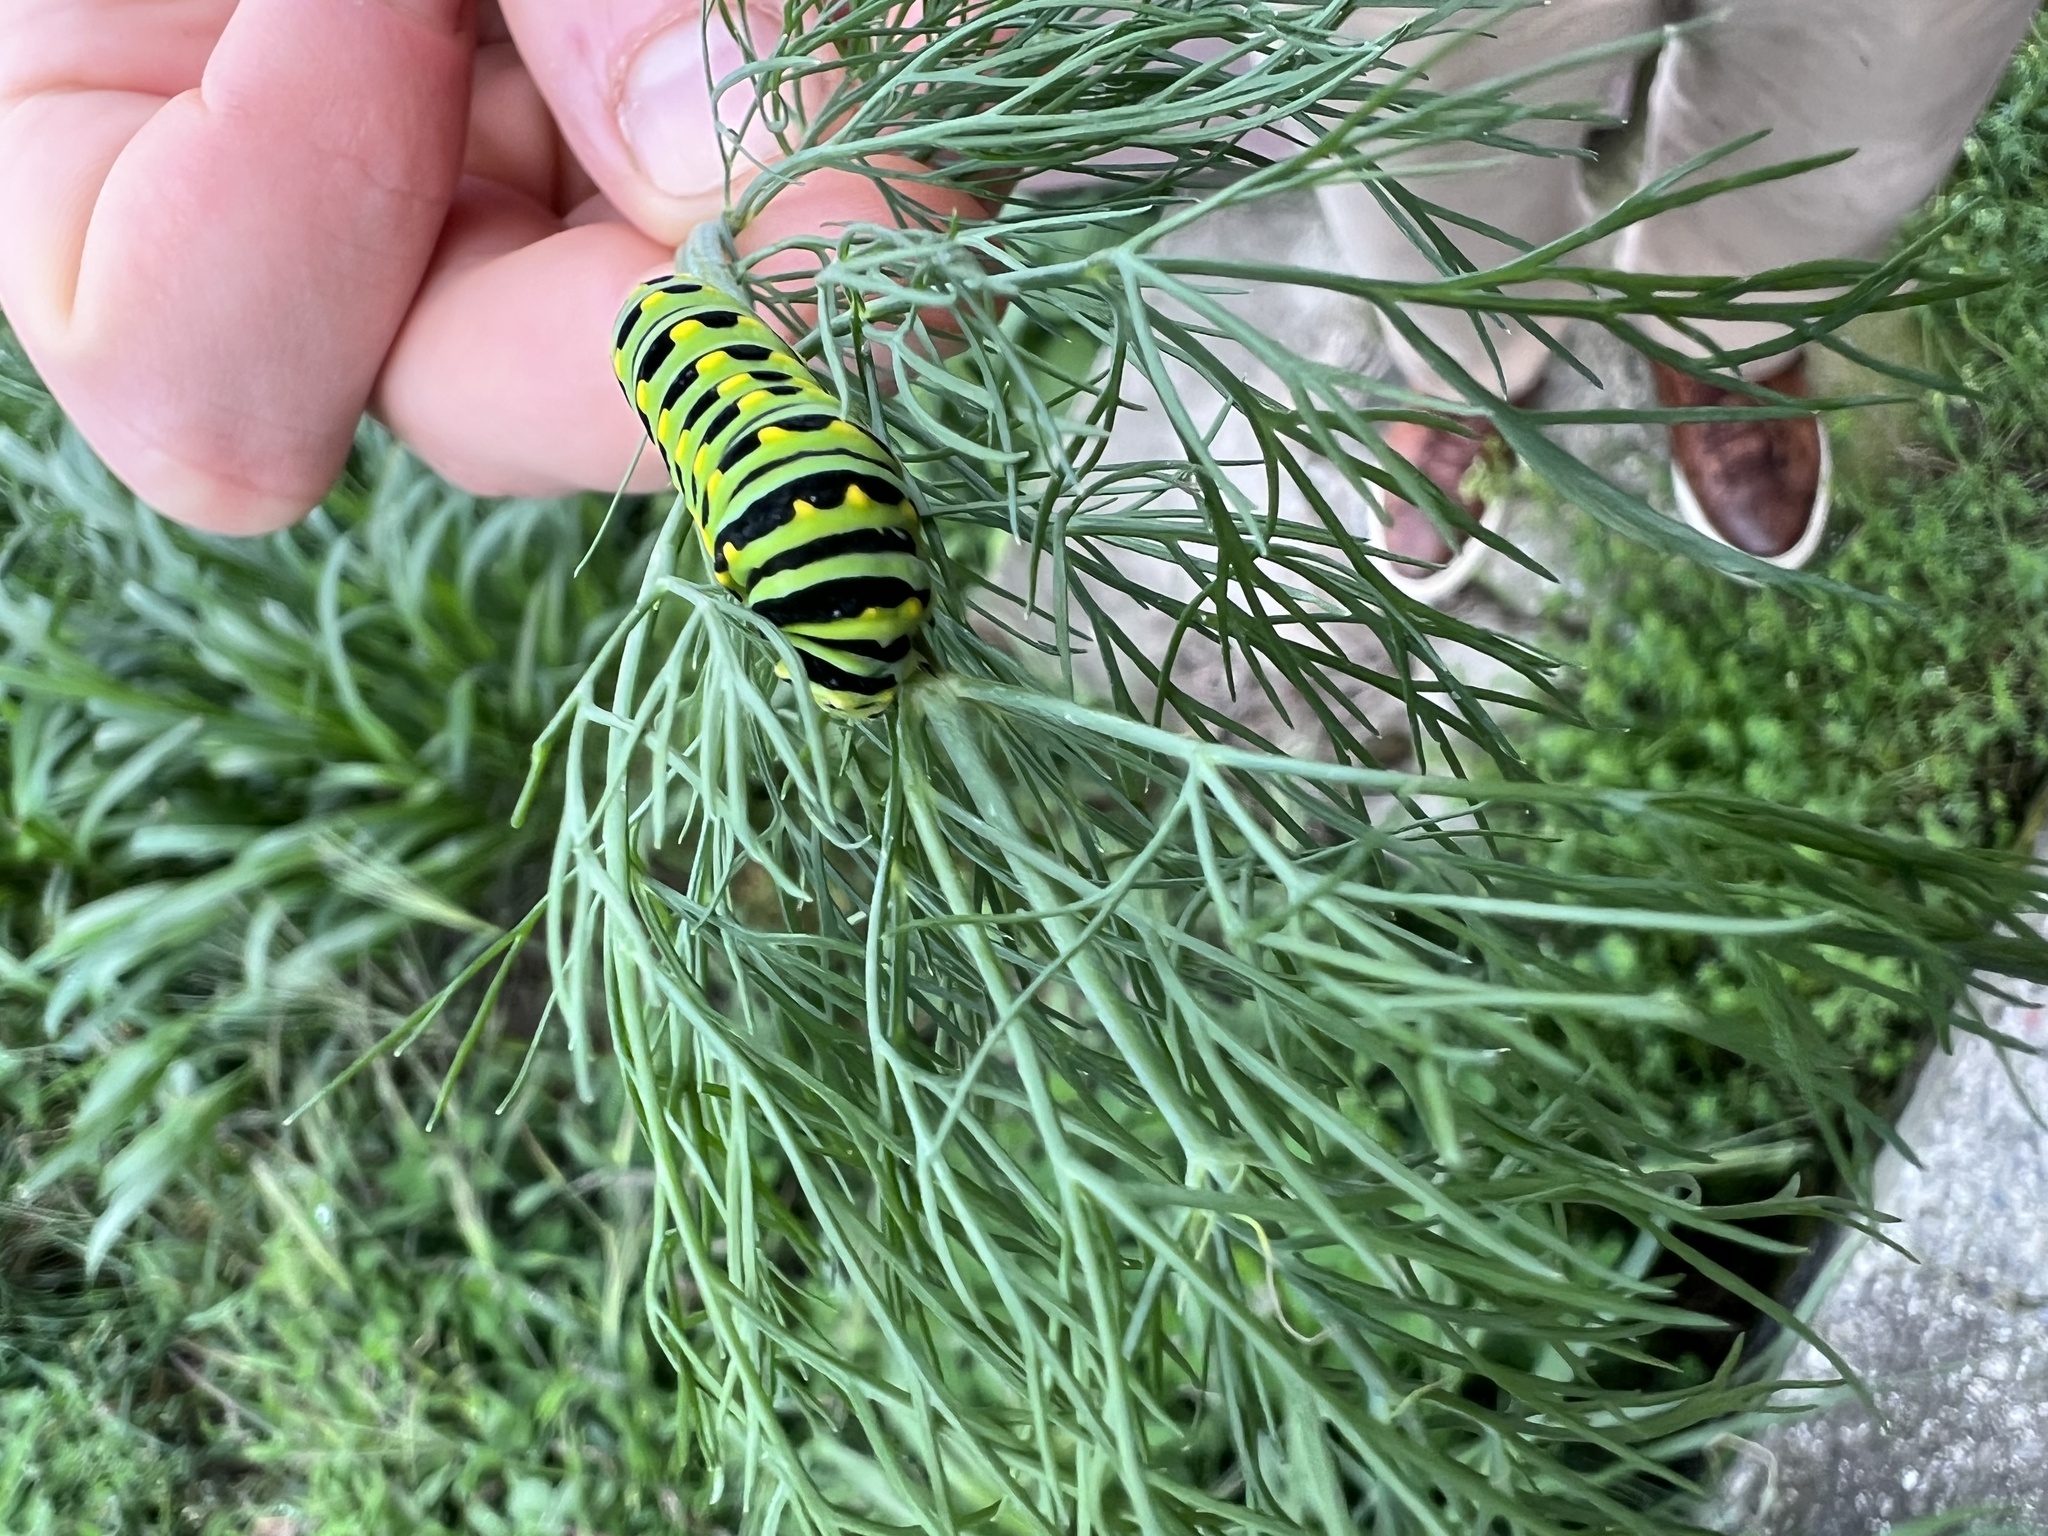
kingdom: Animalia
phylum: Arthropoda
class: Insecta
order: Lepidoptera
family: Papilionidae
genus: Papilio
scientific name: Papilio polyxenes
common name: Black swallowtail
